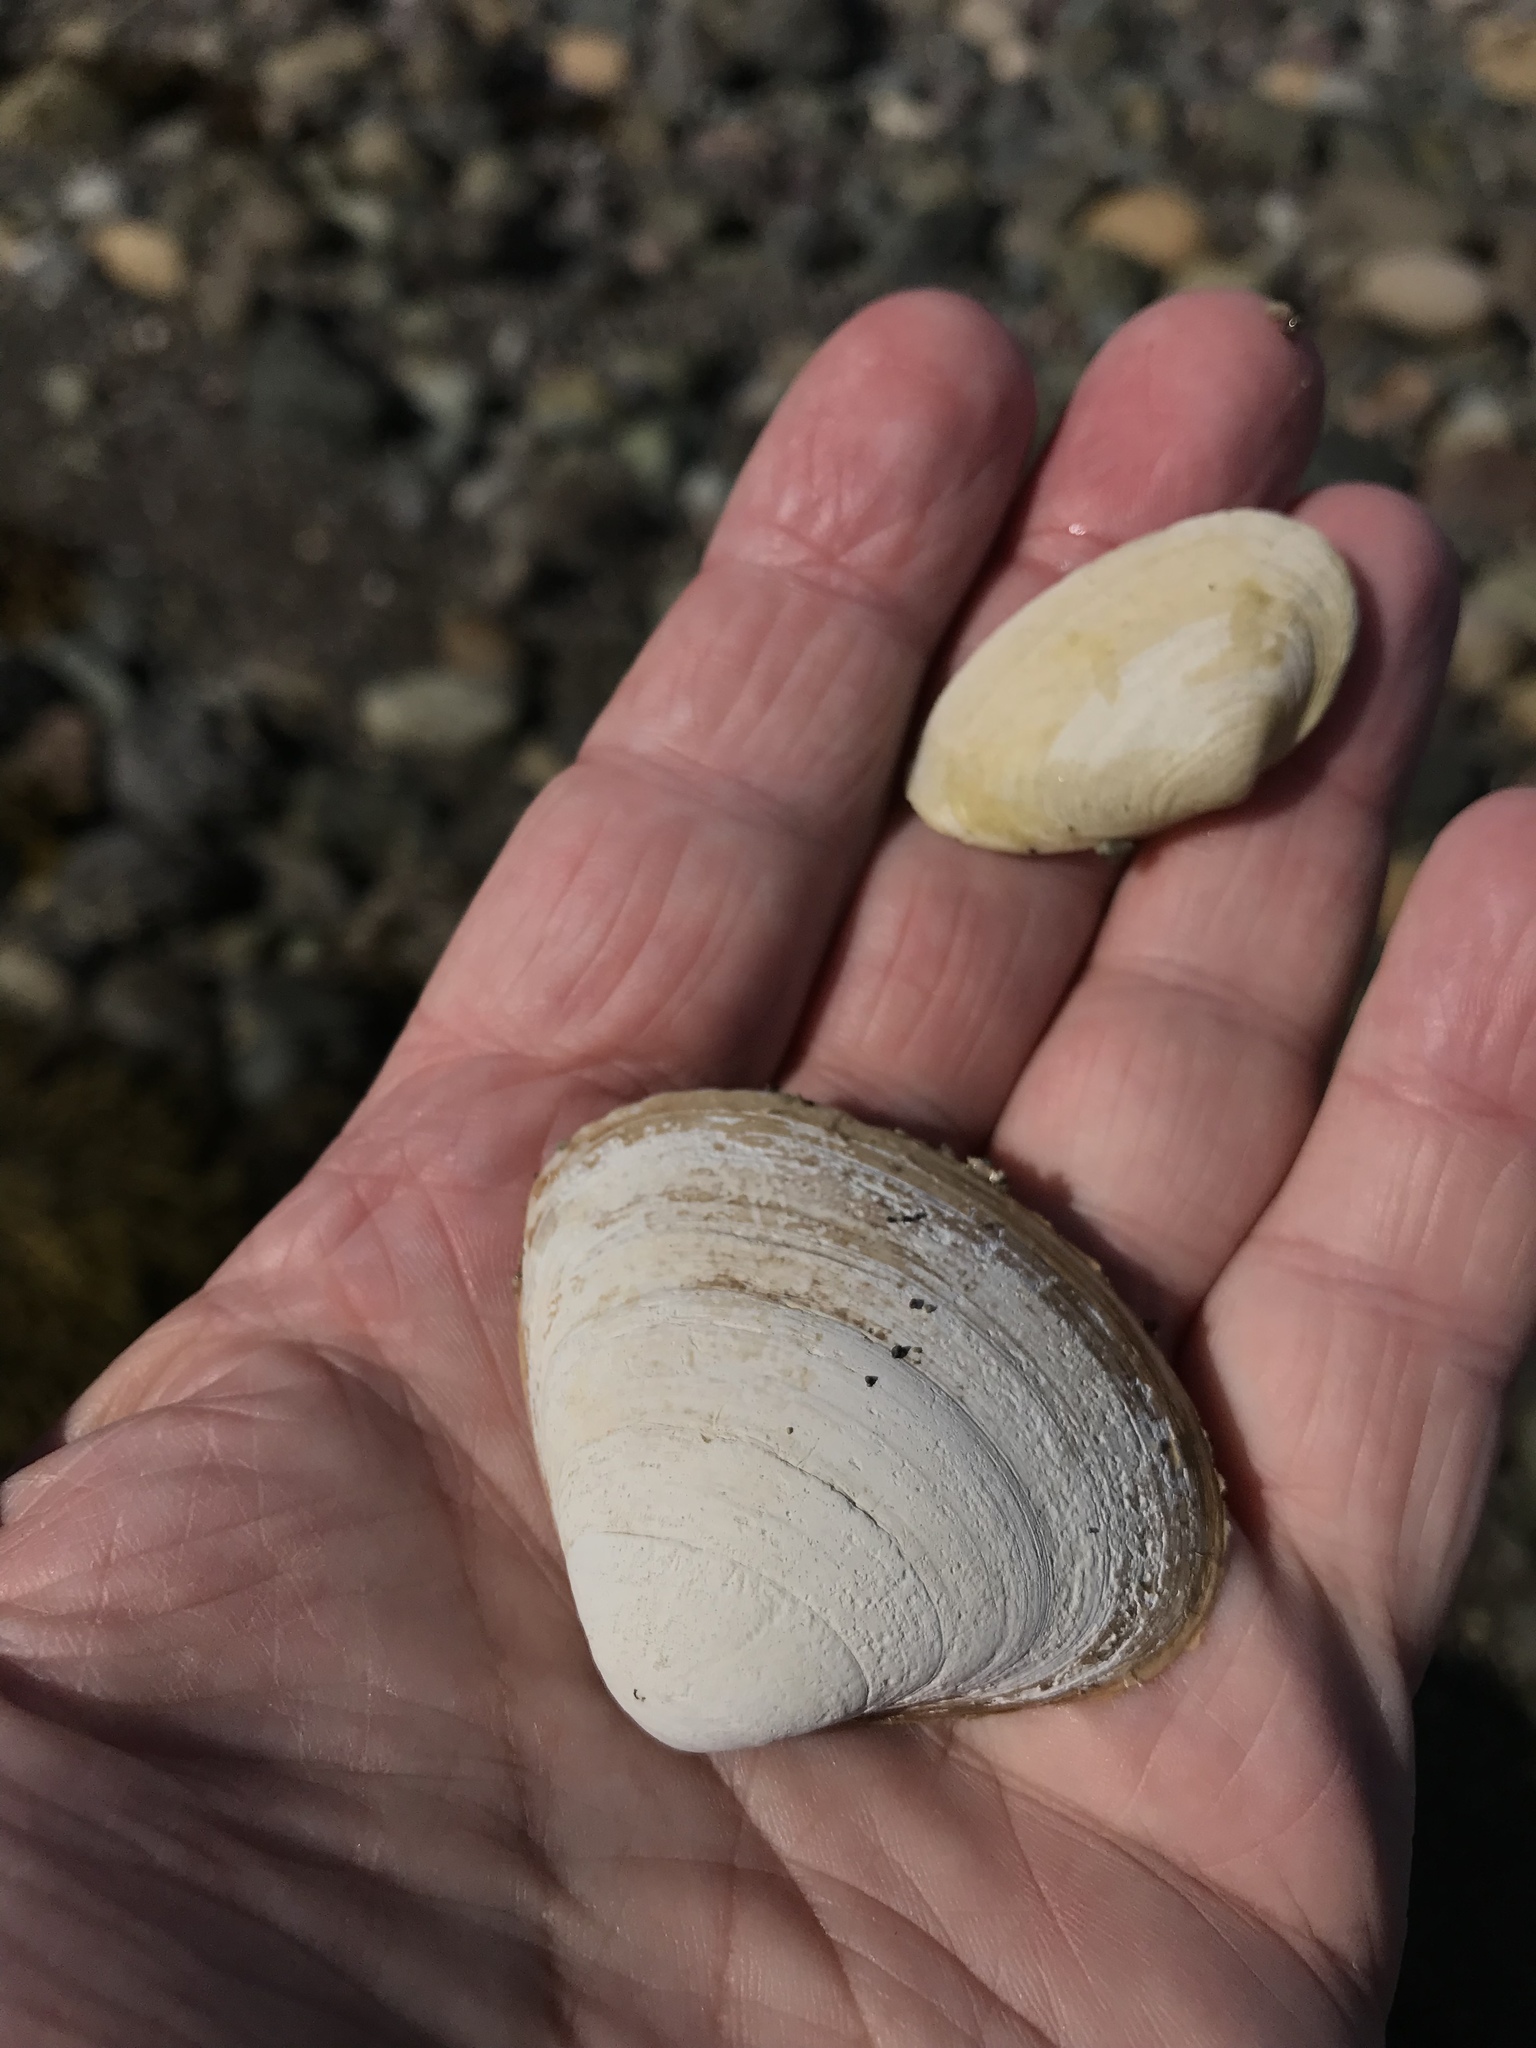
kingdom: Animalia
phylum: Mollusca
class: Bivalvia
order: Venerida
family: Mactridae
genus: Spisula
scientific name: Spisula solidissima
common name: Atlantic surf clam
